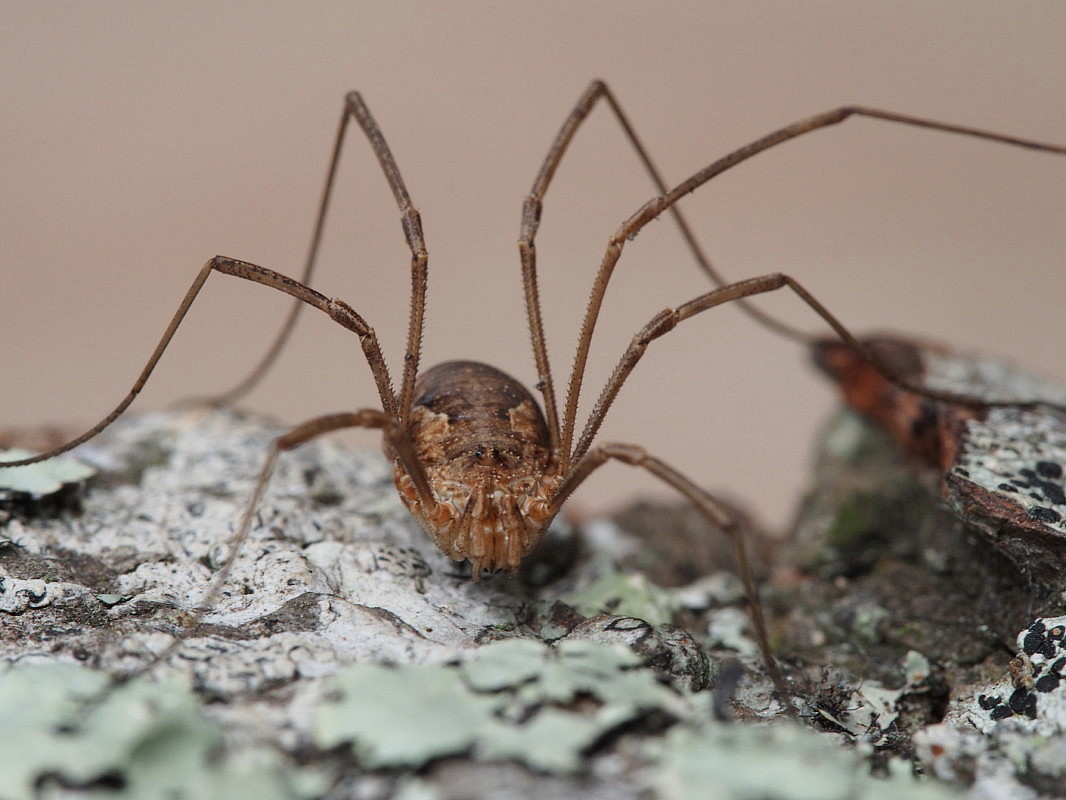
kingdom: Animalia
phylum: Arthropoda
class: Arachnida
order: Opiliones
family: Phalangiidae
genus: Phalangium
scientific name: Phalangium opilio
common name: Daddy longleg
